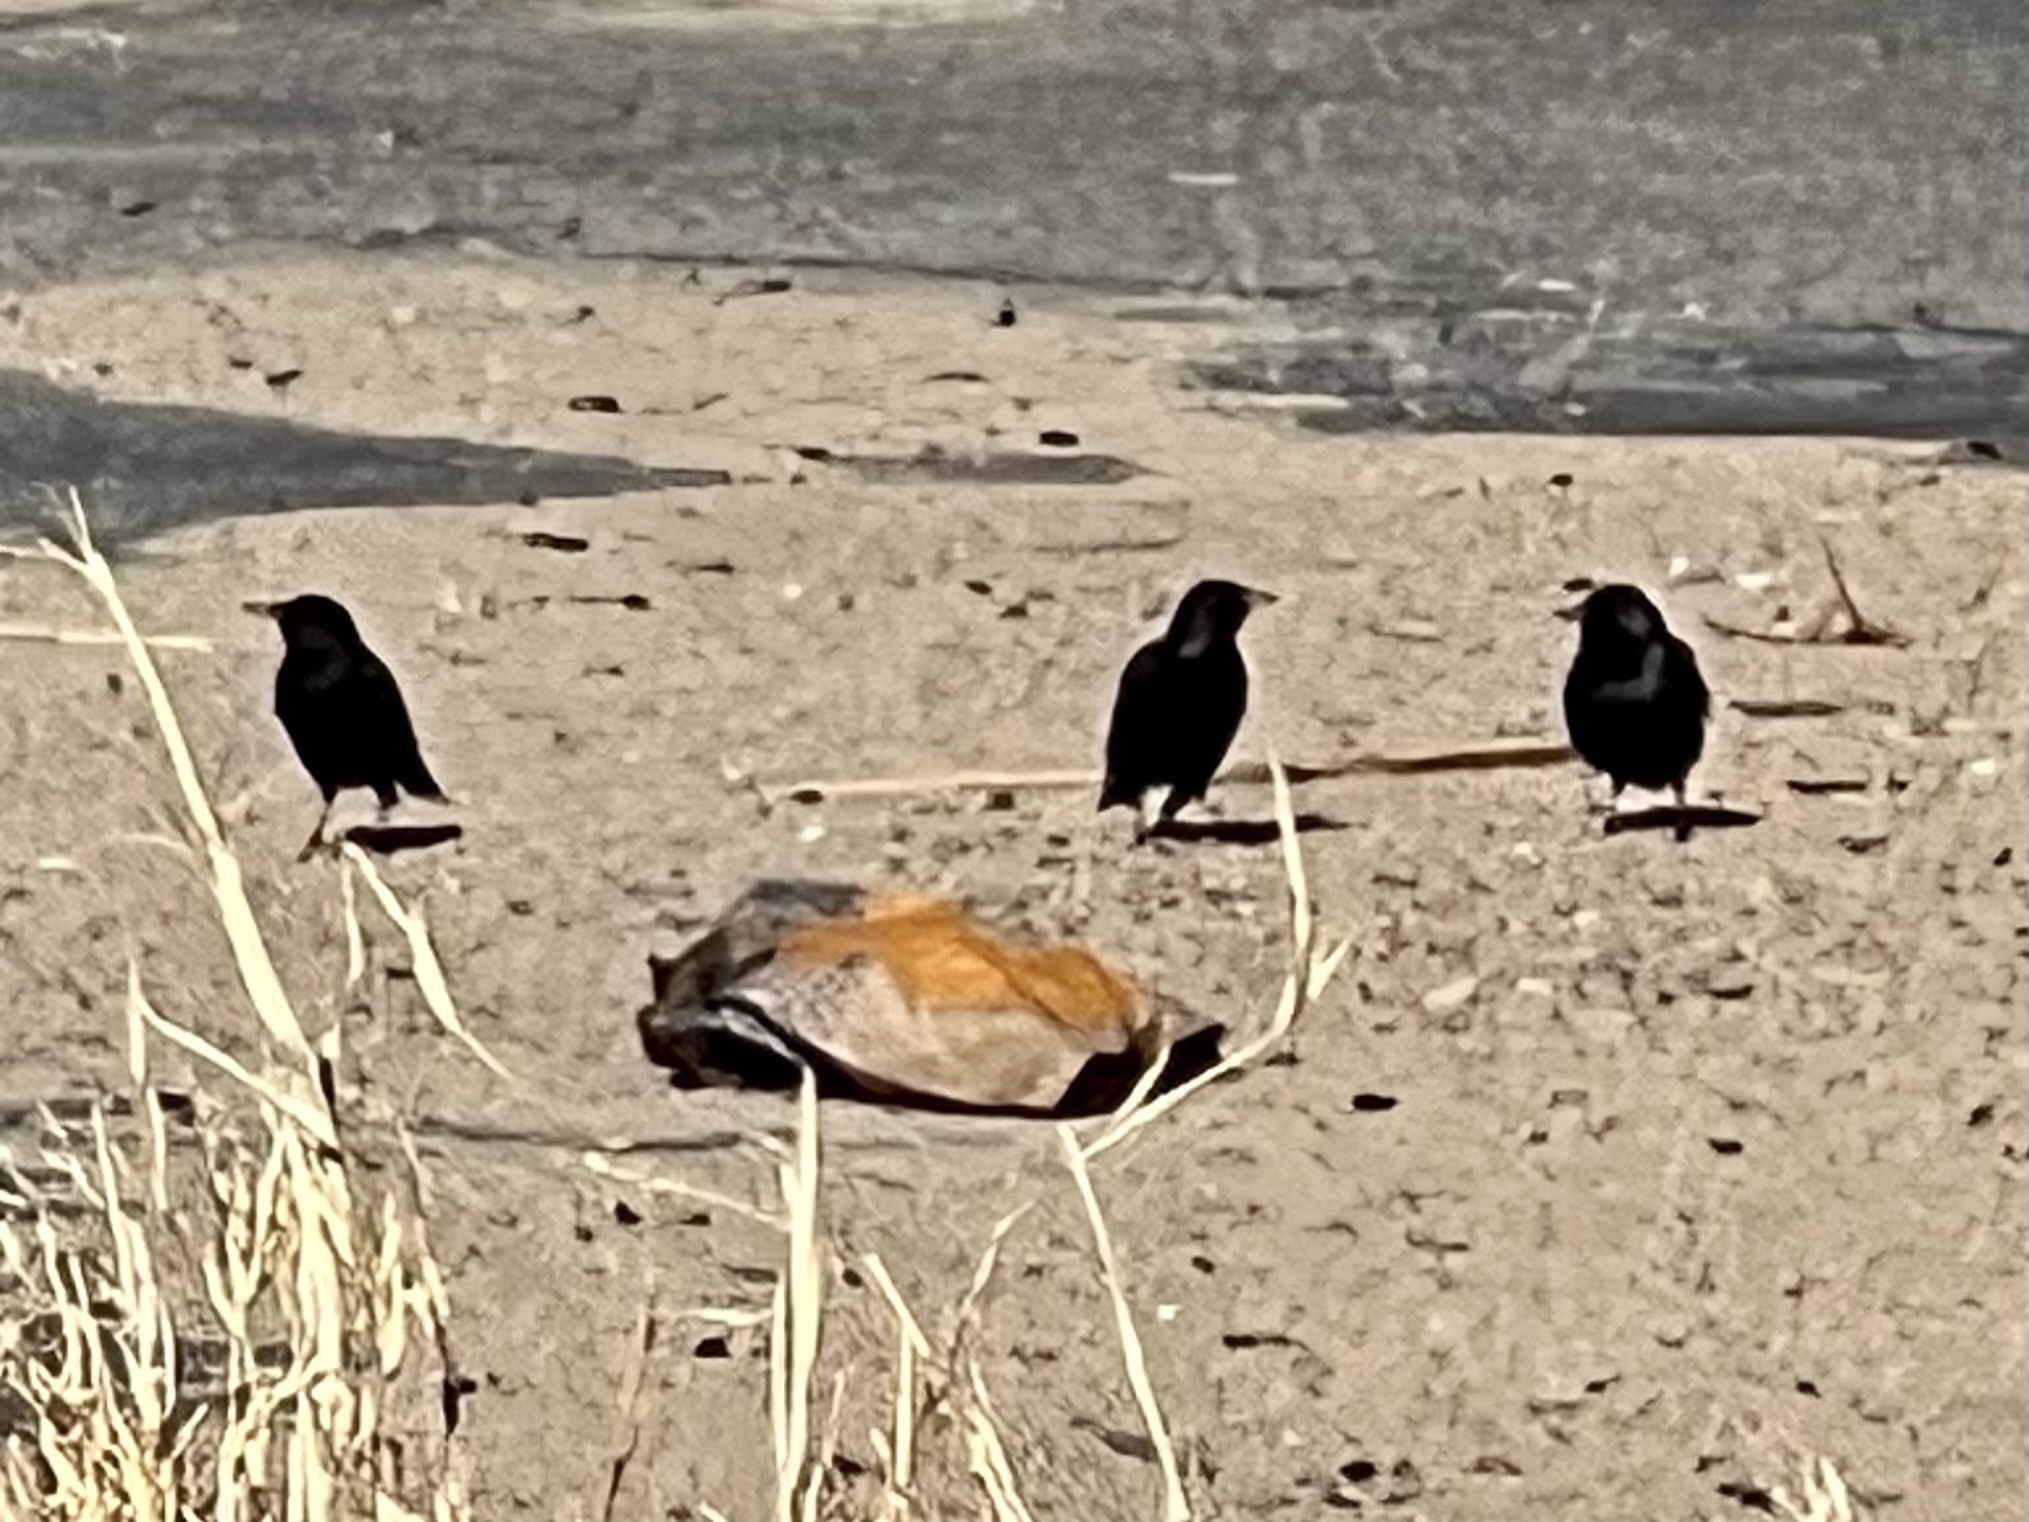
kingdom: Animalia
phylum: Chordata
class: Aves
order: Passeriformes
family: Sturnidae
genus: Sturnus
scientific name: Sturnus vulgaris
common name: Common starling
